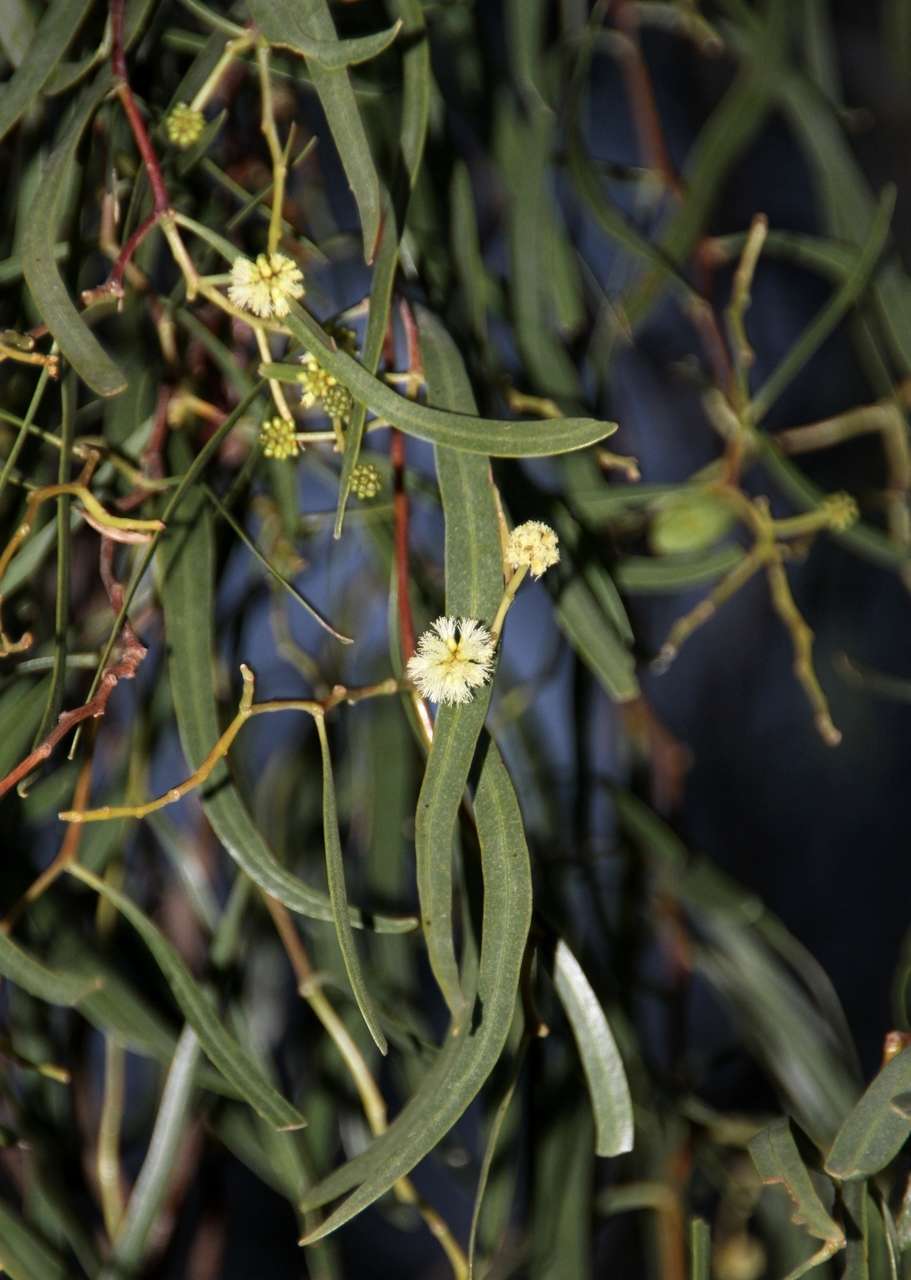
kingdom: Plantae
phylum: Tracheophyta
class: Magnoliopsida
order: Fabales
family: Fabaceae
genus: Acacia
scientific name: Acacia salicina
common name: Broughton willow wattle
